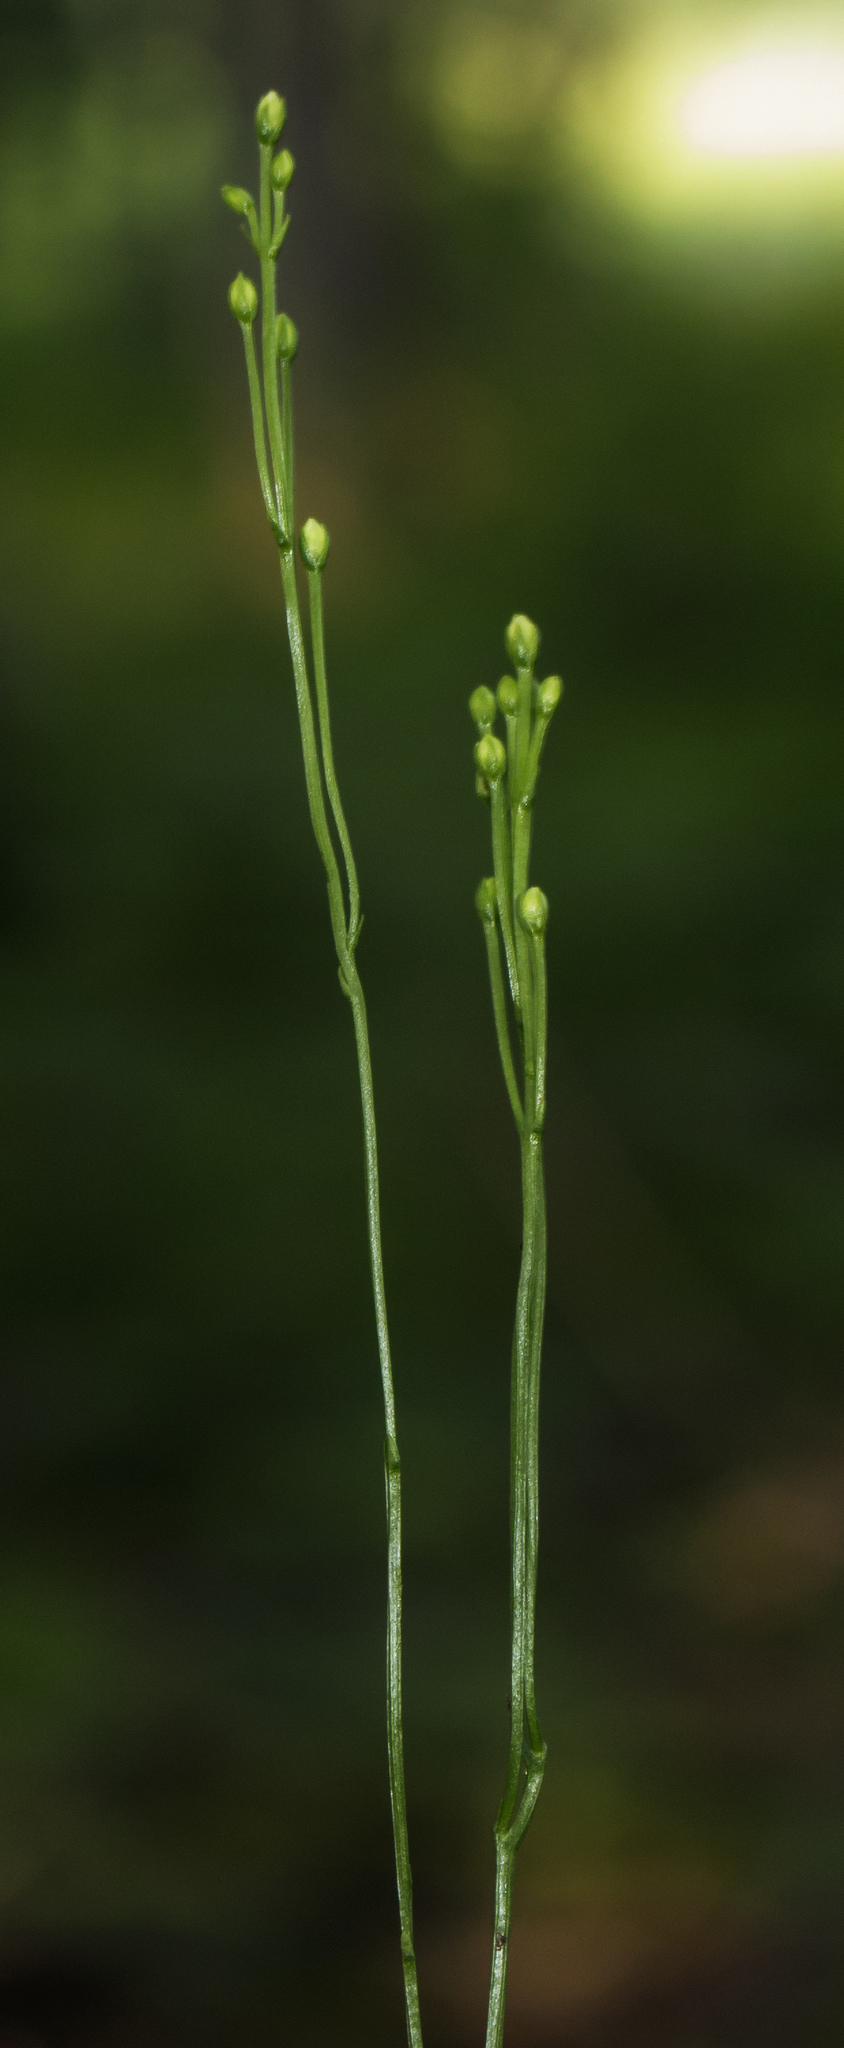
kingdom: Plantae
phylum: Tracheophyta
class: Magnoliopsida
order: Gentianales
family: Gentianaceae
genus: Bartonia
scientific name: Bartonia virginica
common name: Yellow bartonia
